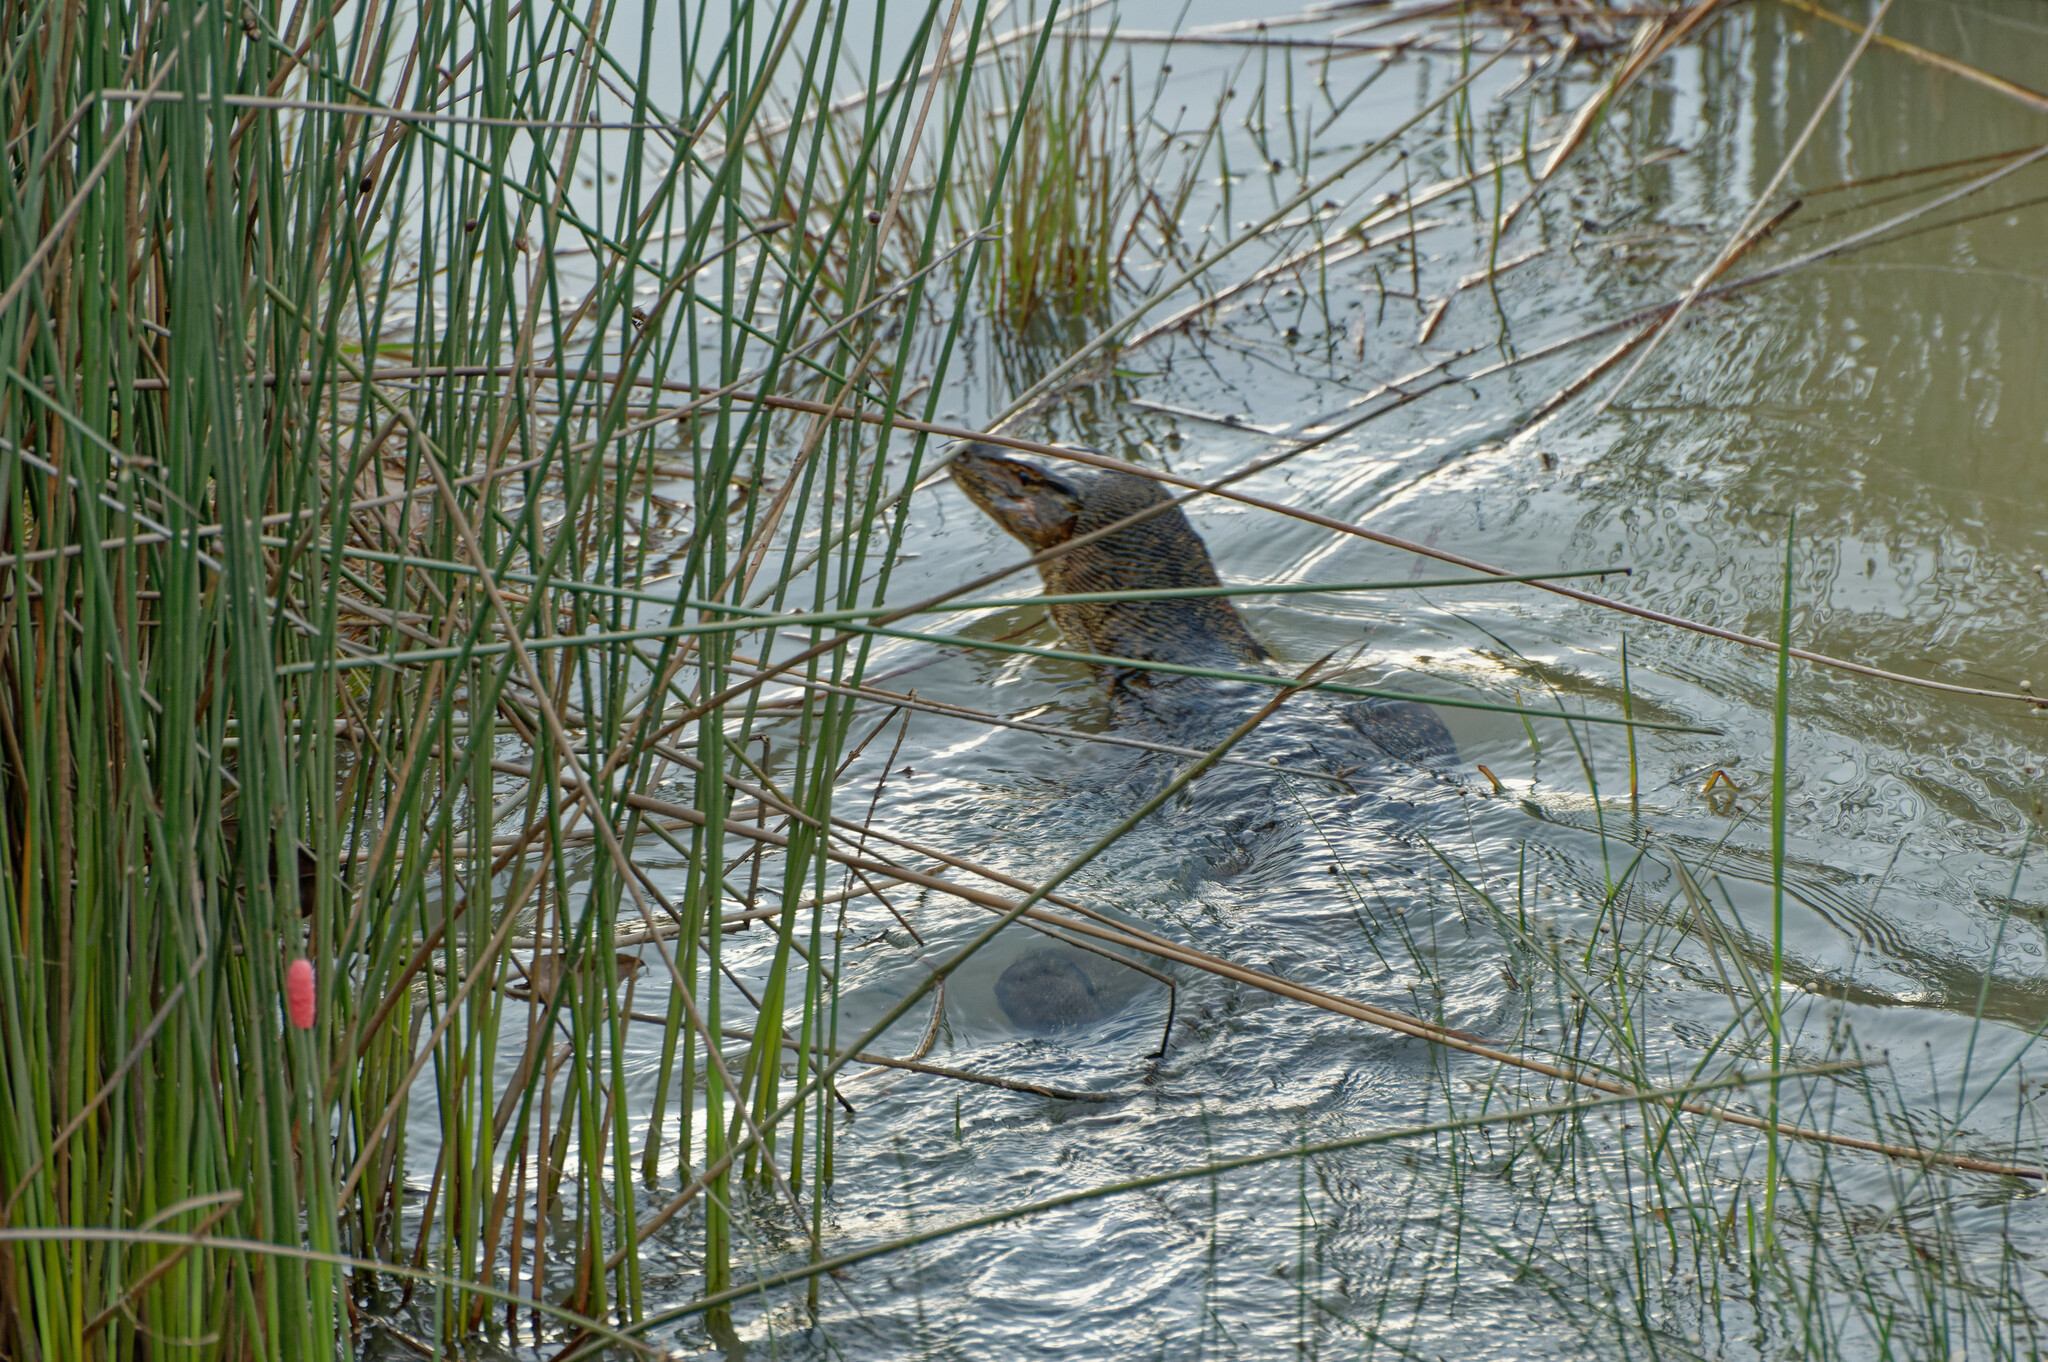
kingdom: Animalia
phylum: Chordata
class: Squamata
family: Varanidae
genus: Varanus
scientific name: Varanus salvator
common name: Common water monitor
